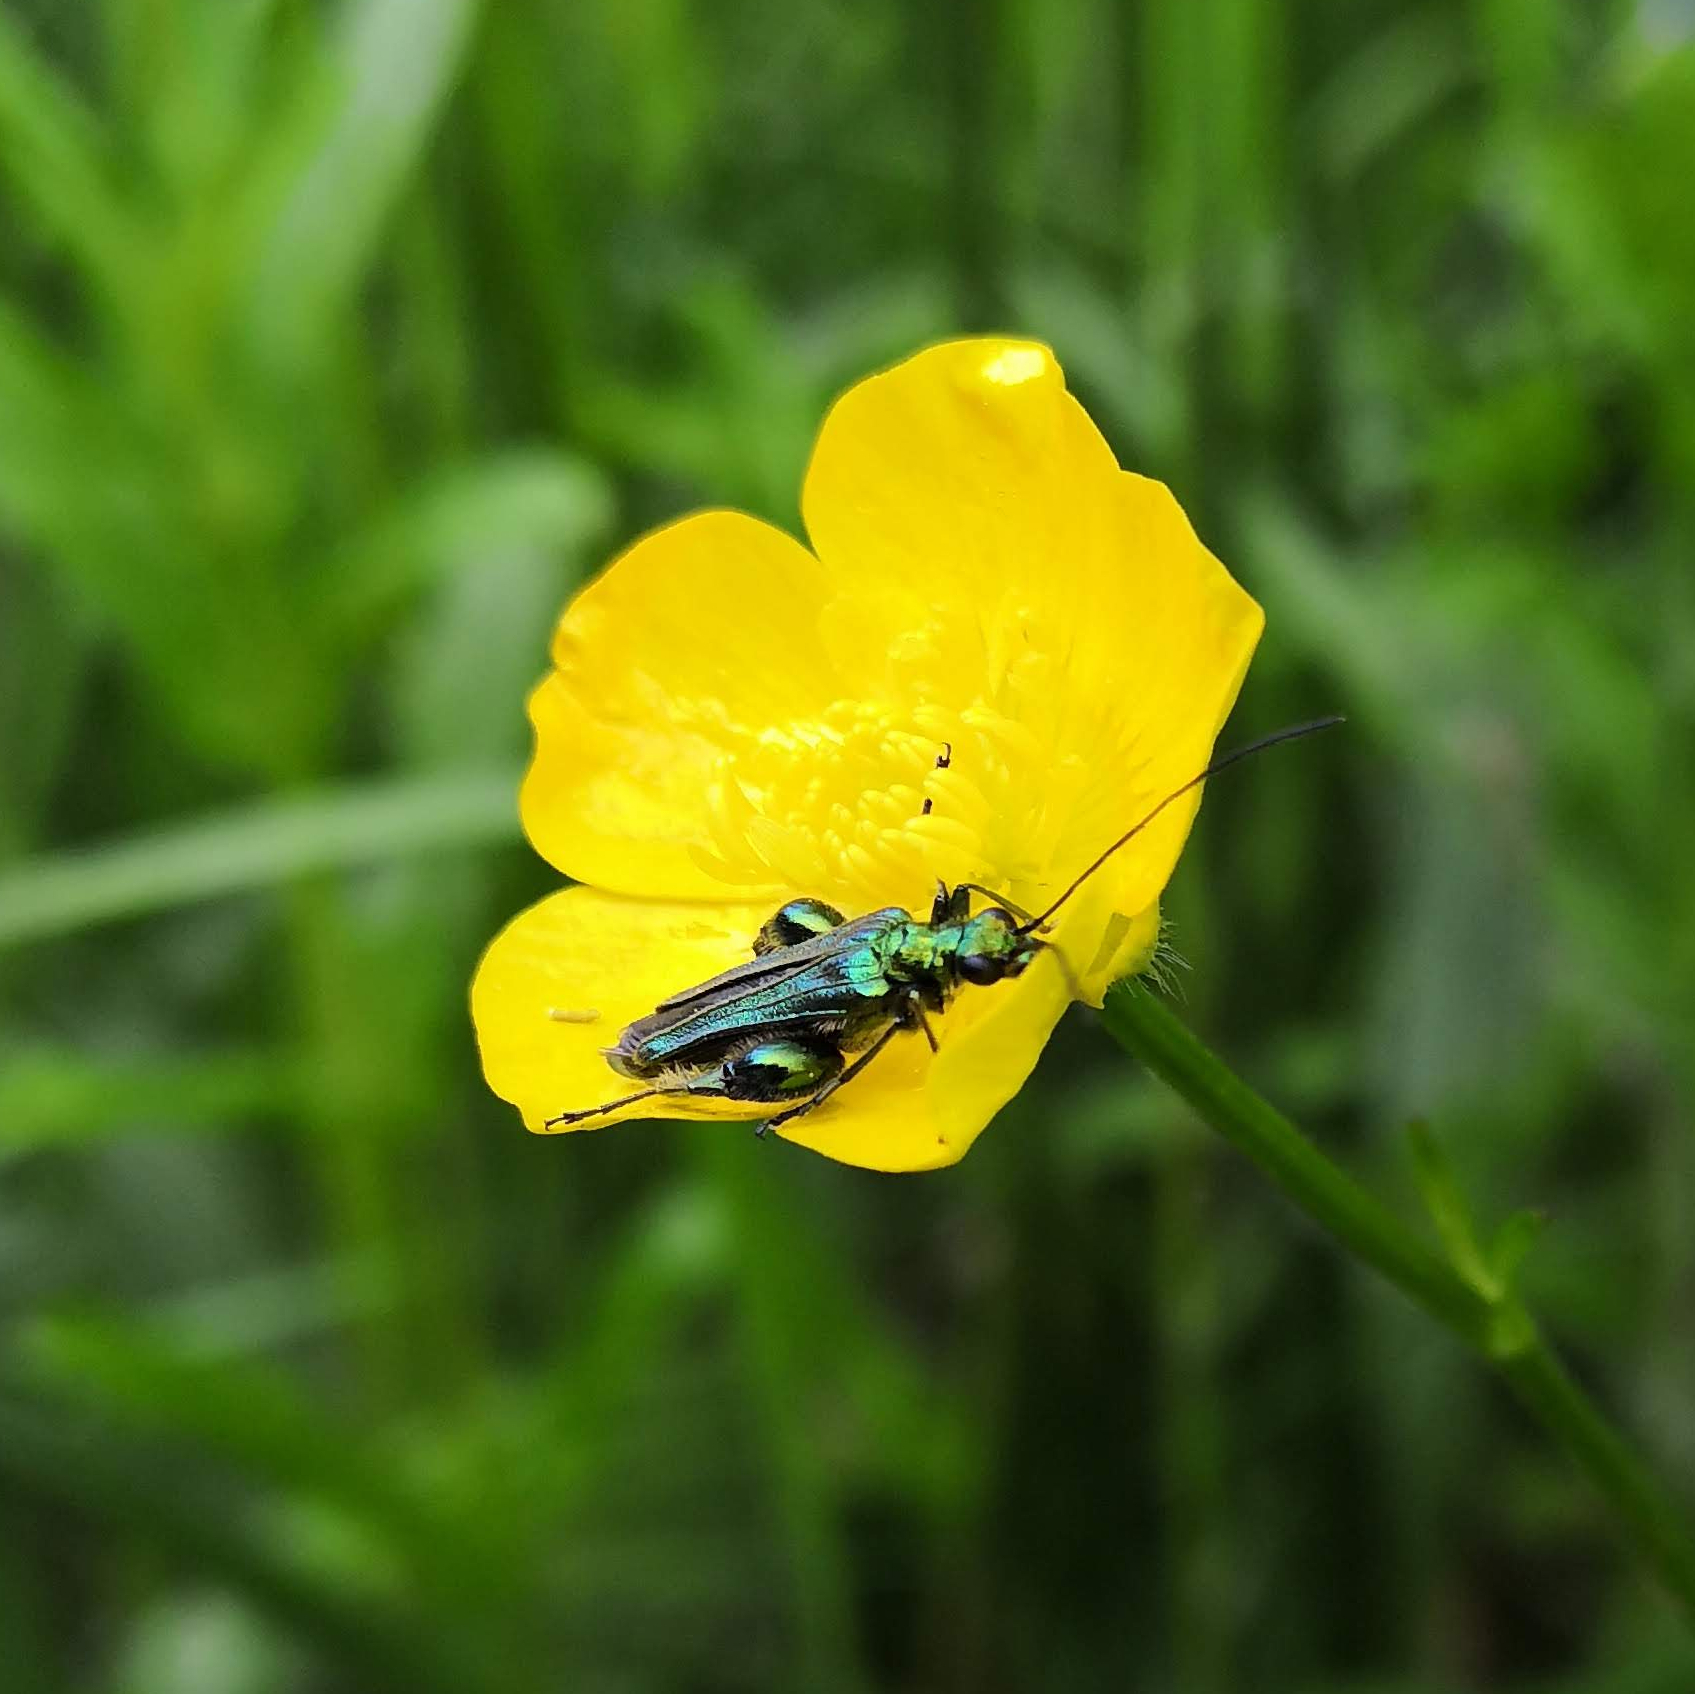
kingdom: Animalia
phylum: Arthropoda
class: Insecta
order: Coleoptera
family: Oedemeridae
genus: Oedemera
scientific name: Oedemera nobilis
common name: Swollen-thighed beetle
